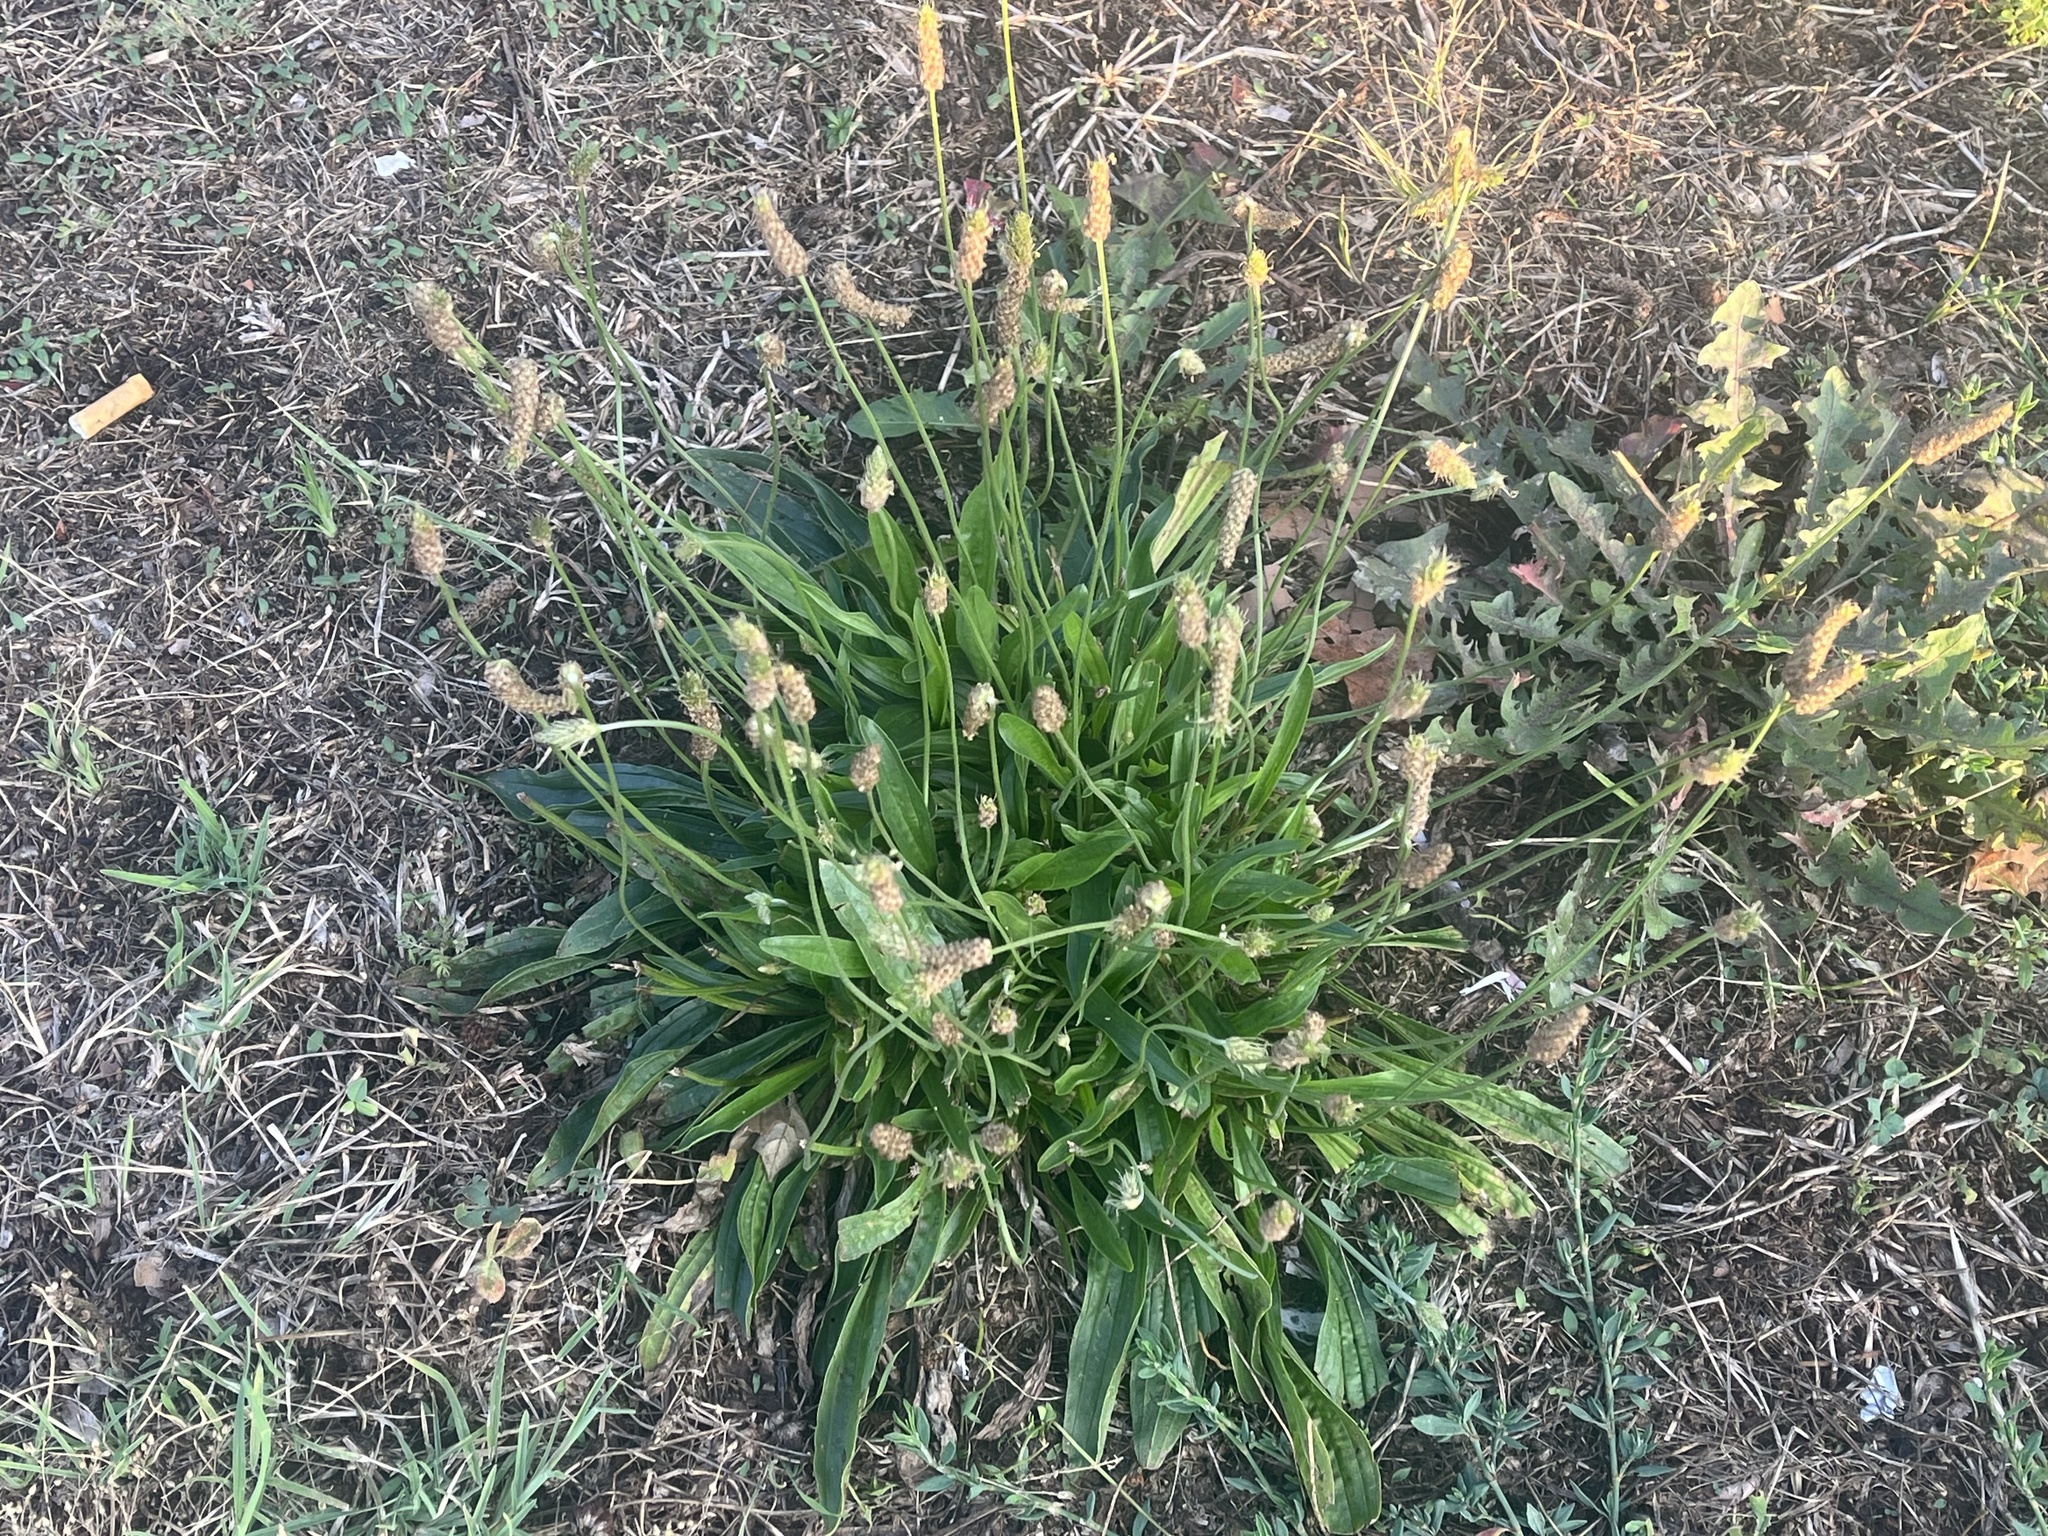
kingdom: Plantae
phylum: Tracheophyta
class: Magnoliopsida
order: Lamiales
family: Plantaginaceae
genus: Plantago
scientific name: Plantago lanceolata
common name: Ribwort plantain
